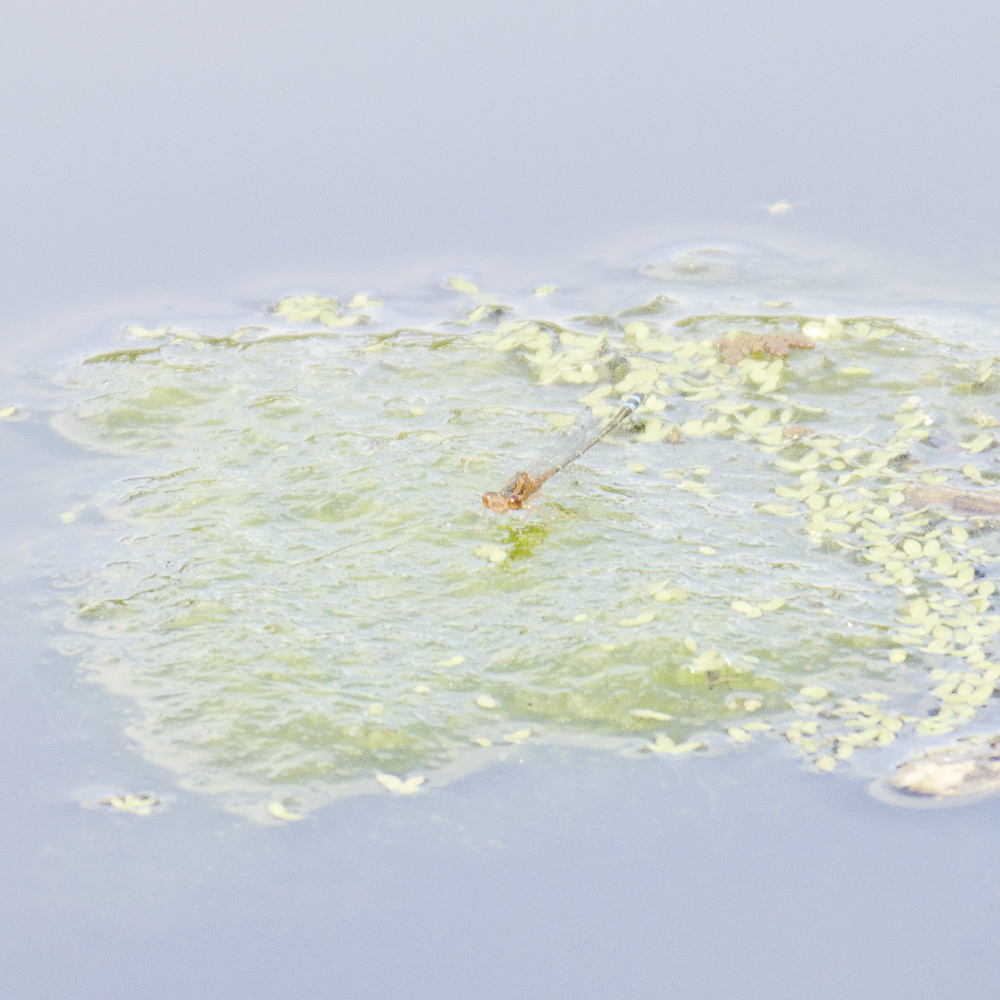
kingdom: Animalia
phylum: Arthropoda
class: Insecta
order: Odonata
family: Coenagrionidae
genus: Xanthagrion
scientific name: Xanthagrion erythroneurum
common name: Red and blue damsel
